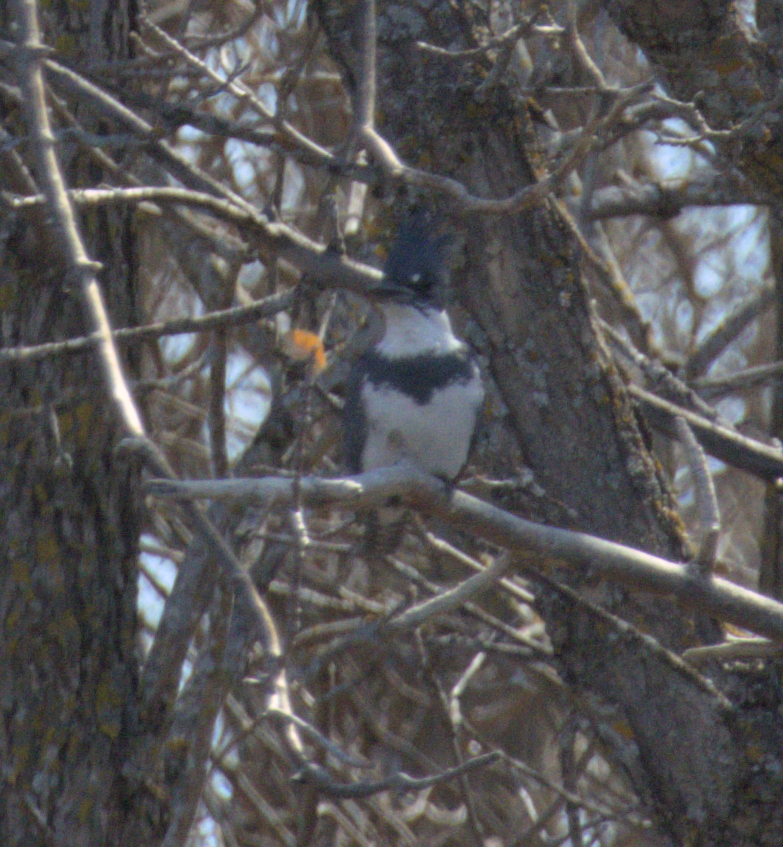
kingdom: Animalia
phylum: Chordata
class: Aves
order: Coraciiformes
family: Alcedinidae
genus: Megaceryle
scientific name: Megaceryle alcyon
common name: Belted kingfisher
